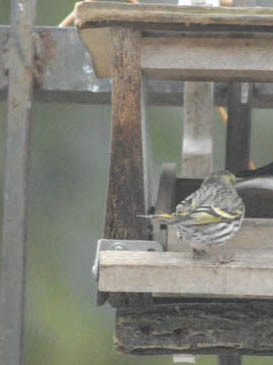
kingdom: Animalia
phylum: Chordata
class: Aves
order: Passeriformes
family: Fringillidae
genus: Spinus
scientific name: Spinus spinus
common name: Eurasian siskin
